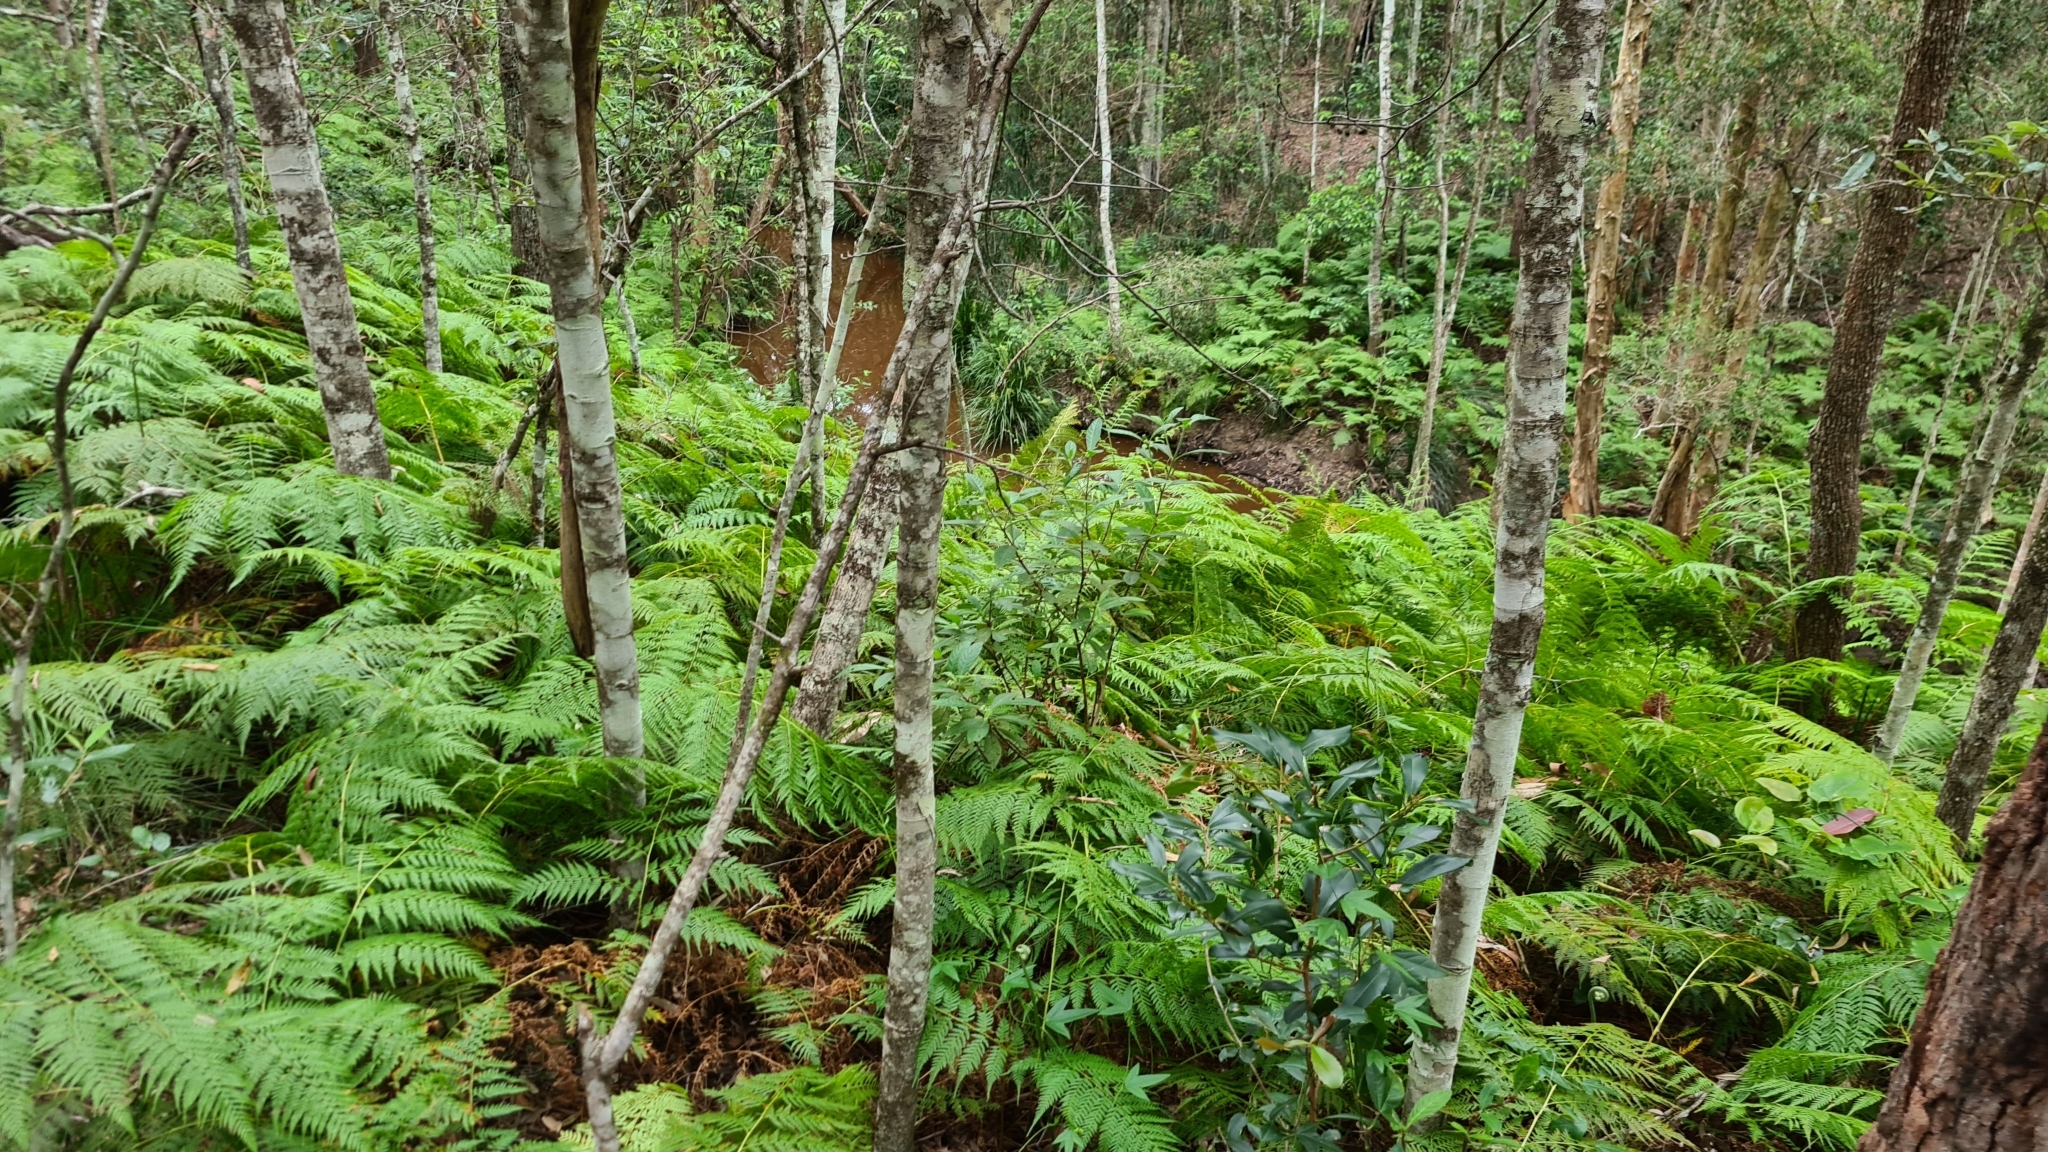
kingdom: Plantae
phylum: Tracheophyta
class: Polypodiopsida
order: Cyatheales
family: Dicksoniaceae
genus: Calochlaena
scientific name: Calochlaena dubia
